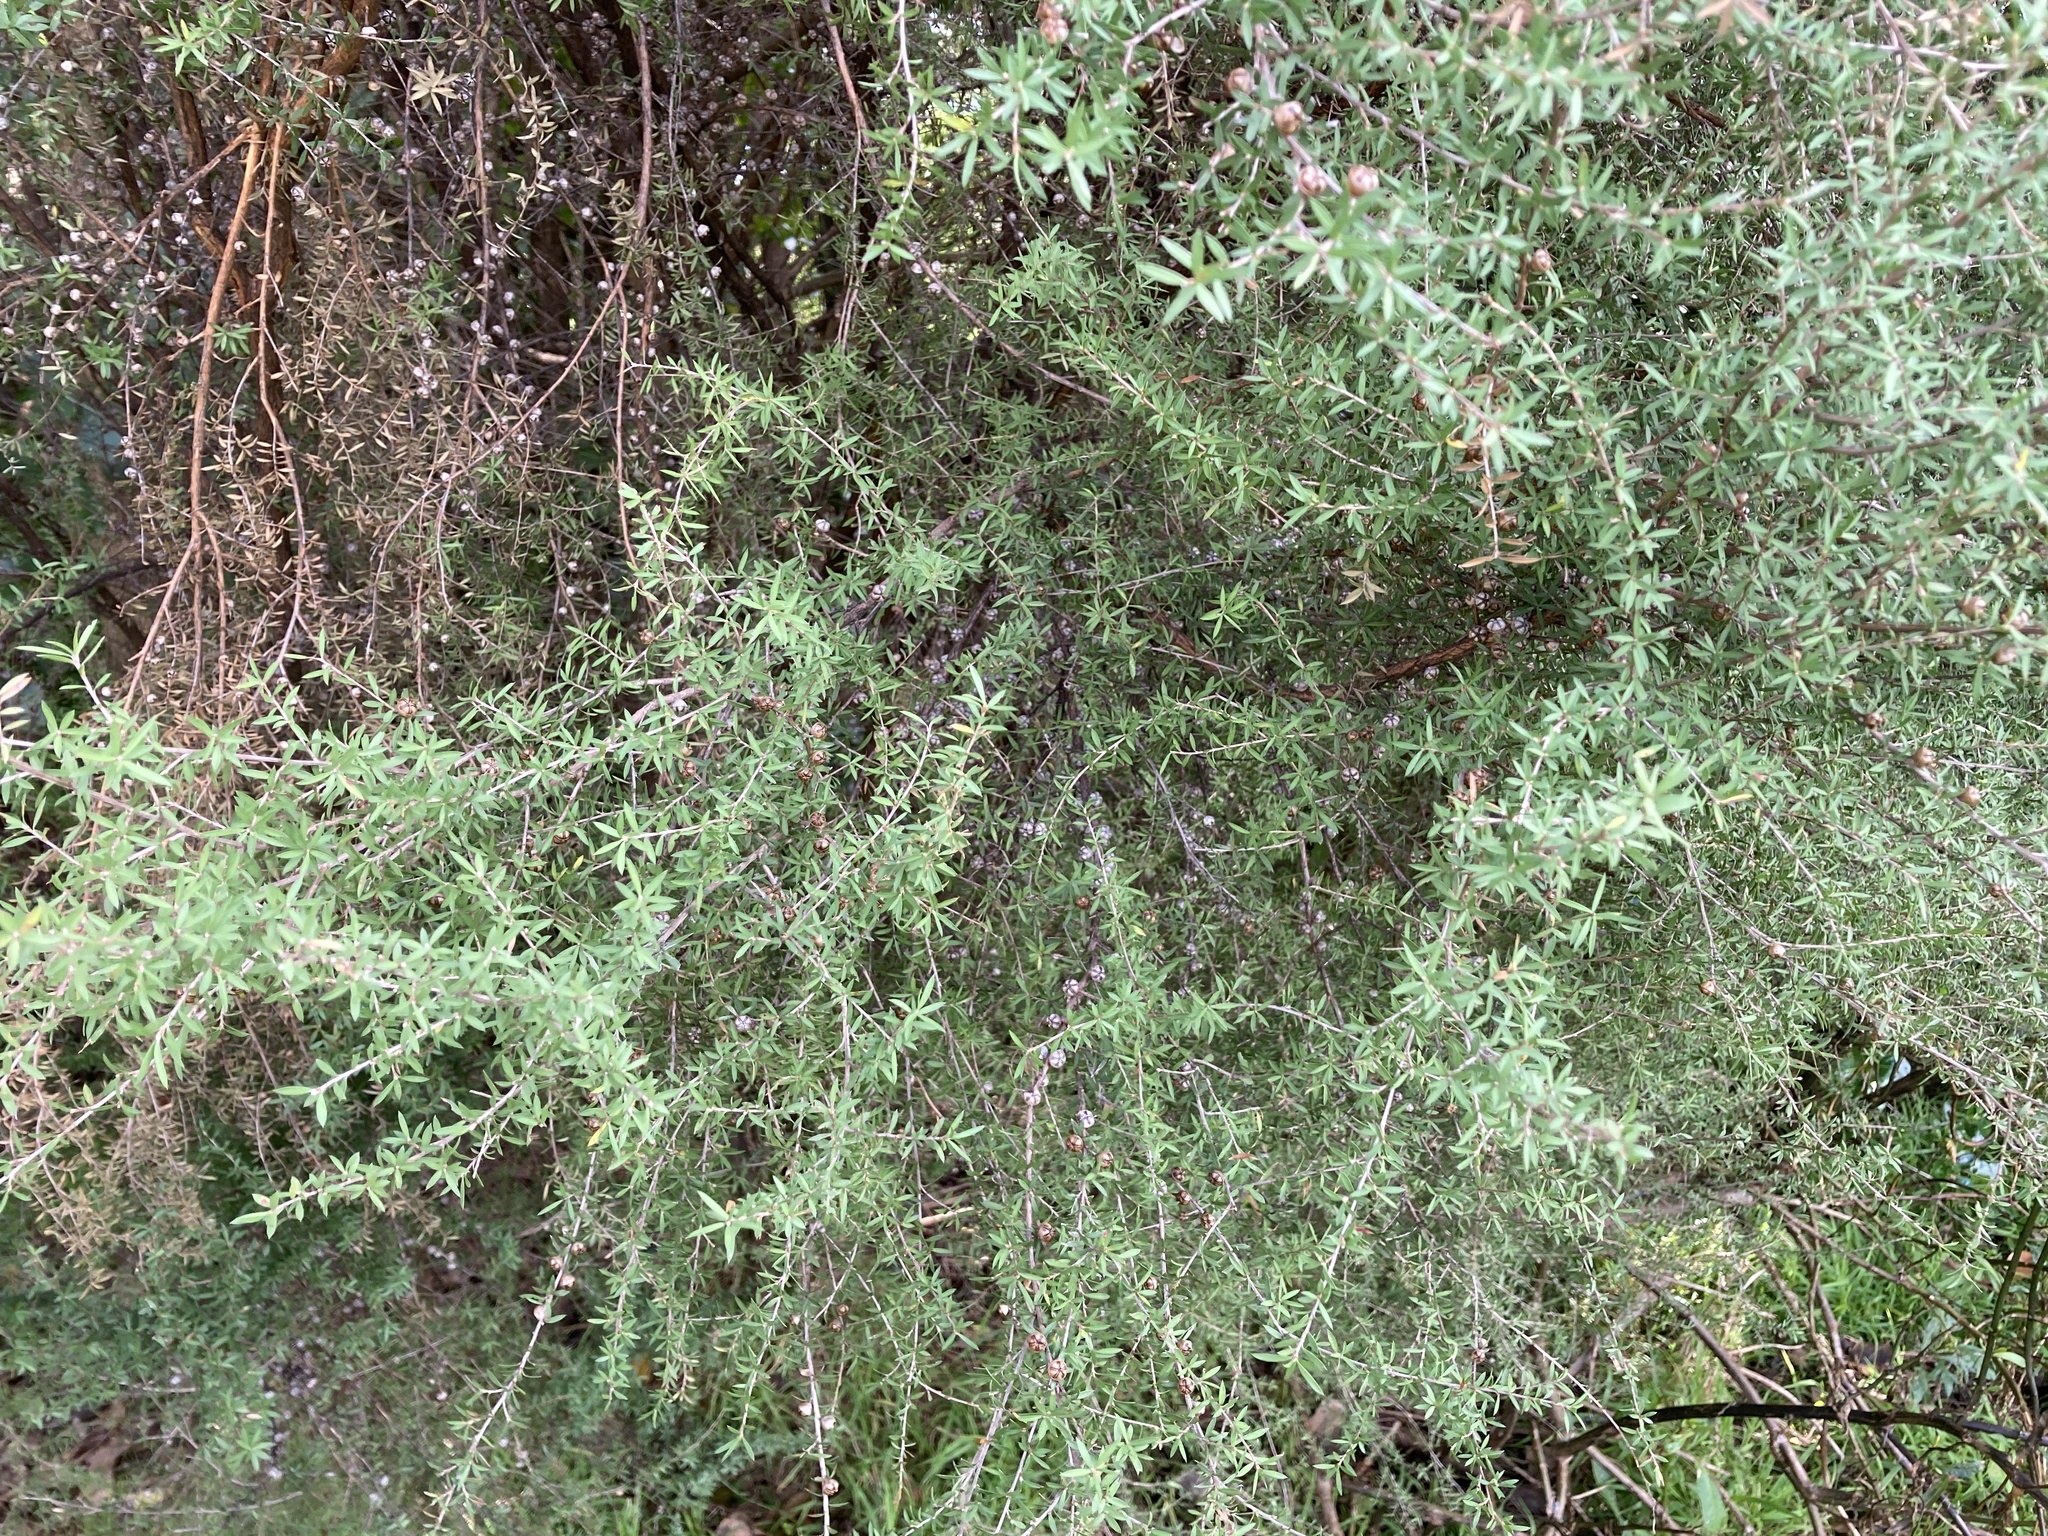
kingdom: Plantae
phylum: Tracheophyta
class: Magnoliopsida
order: Myrtales
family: Myrtaceae
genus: Leptospermum
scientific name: Leptospermum scoparium
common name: Broom tea-tree
